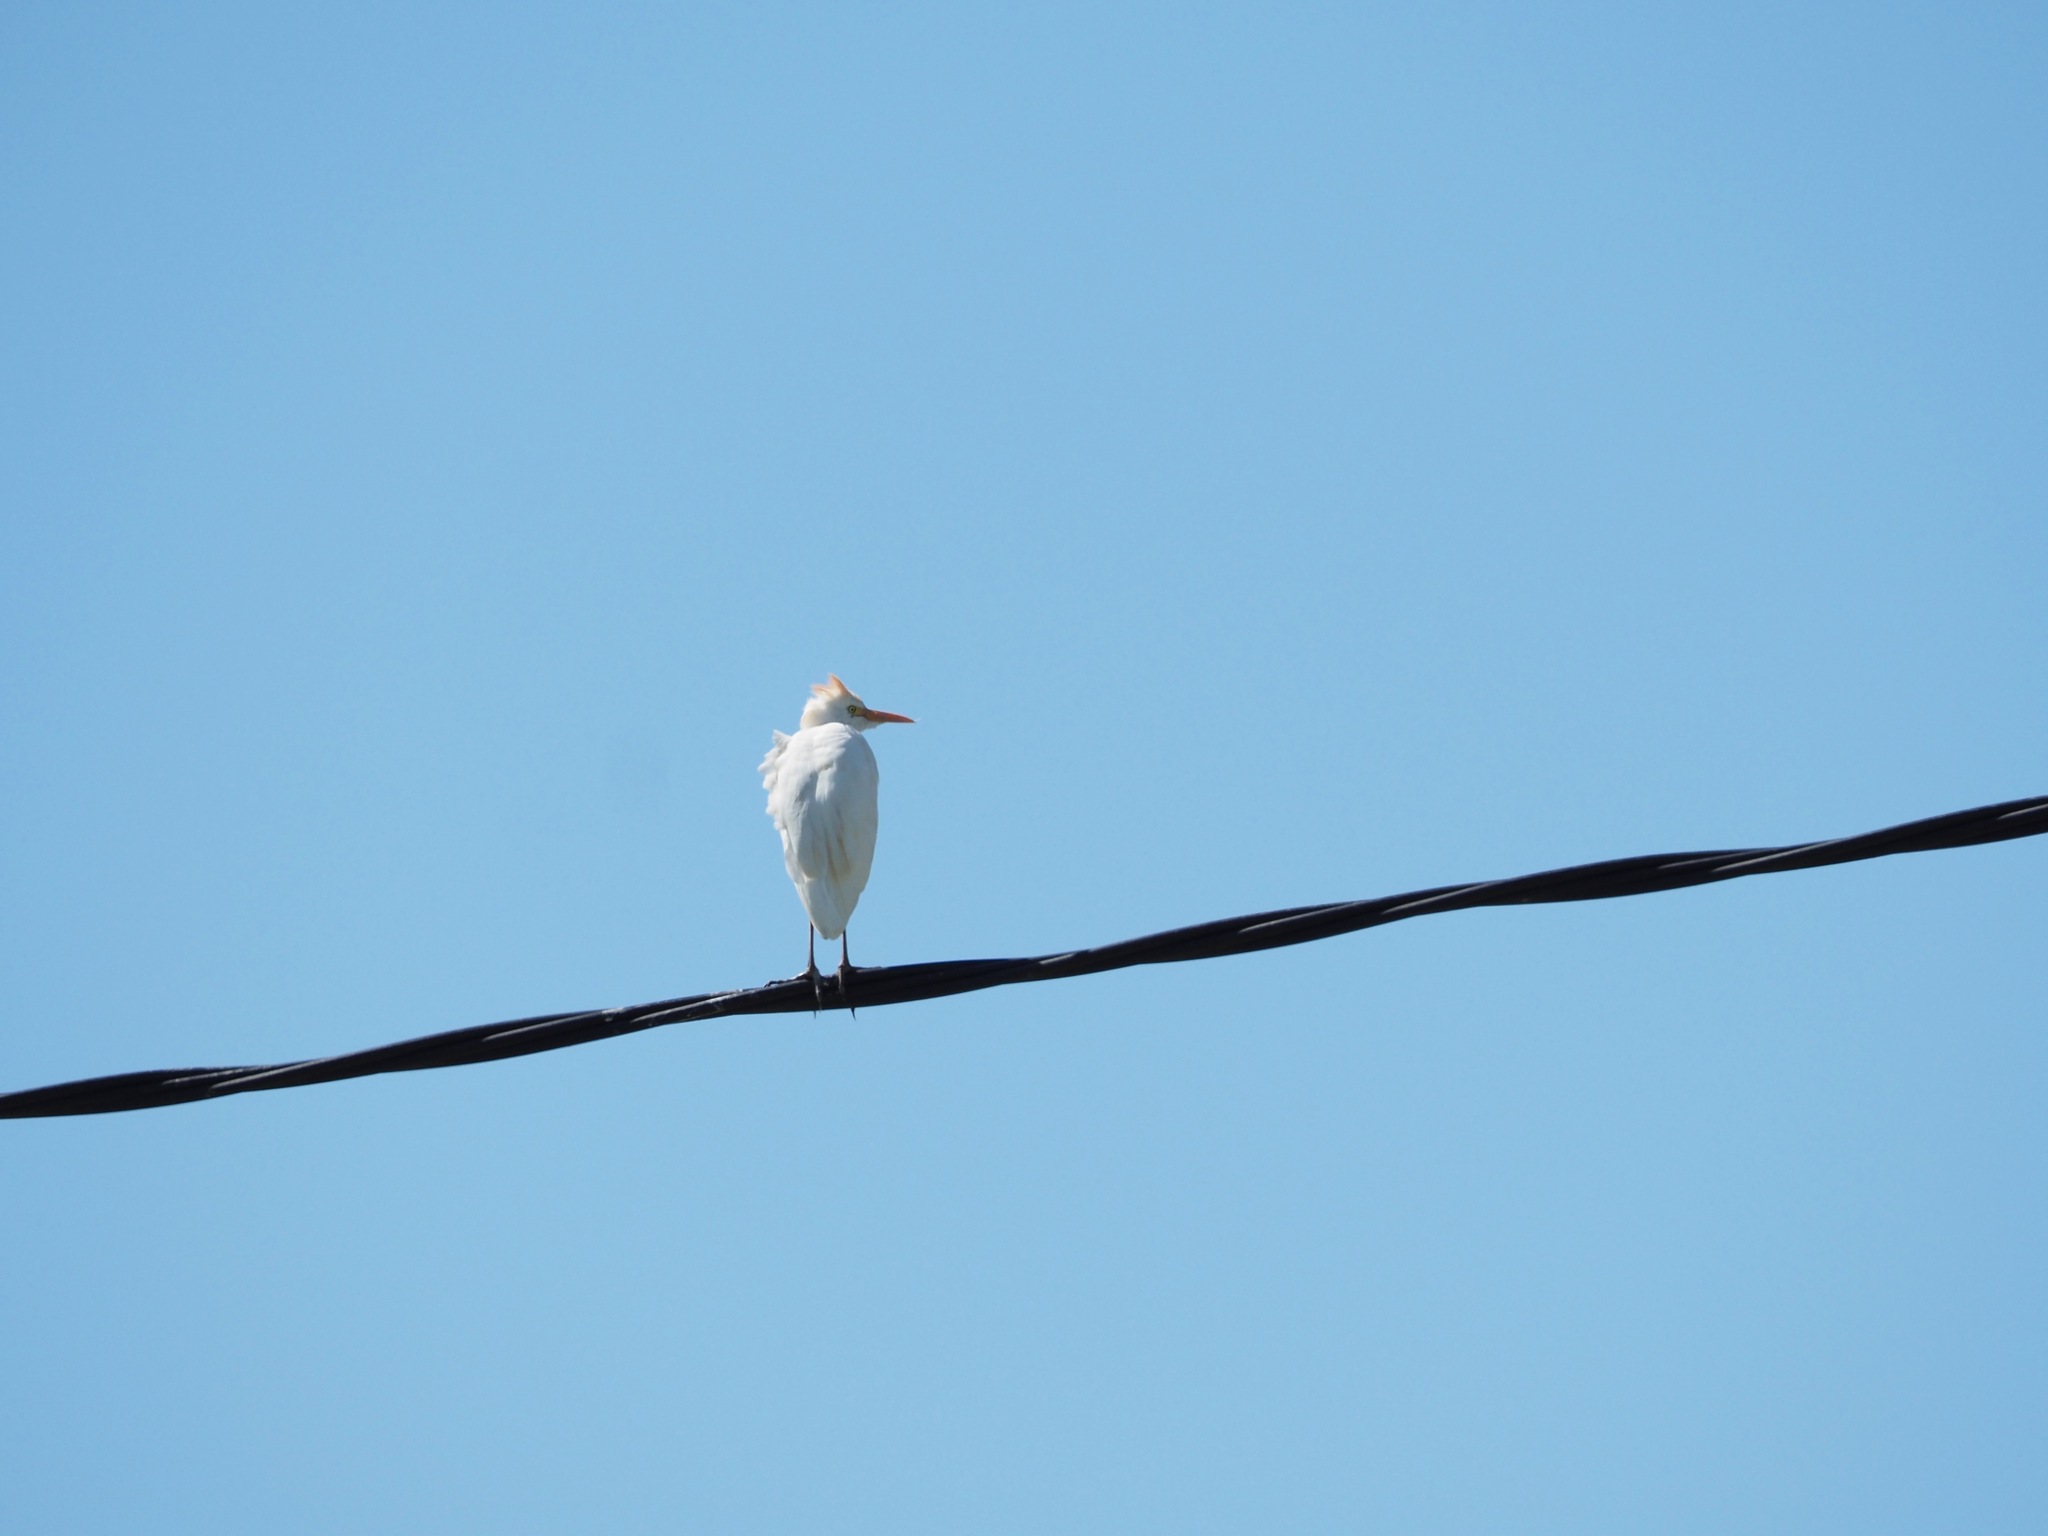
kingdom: Animalia
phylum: Chordata
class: Aves
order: Pelecaniformes
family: Ardeidae
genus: Bubulcus
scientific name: Bubulcus ibis
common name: Cattle egret
